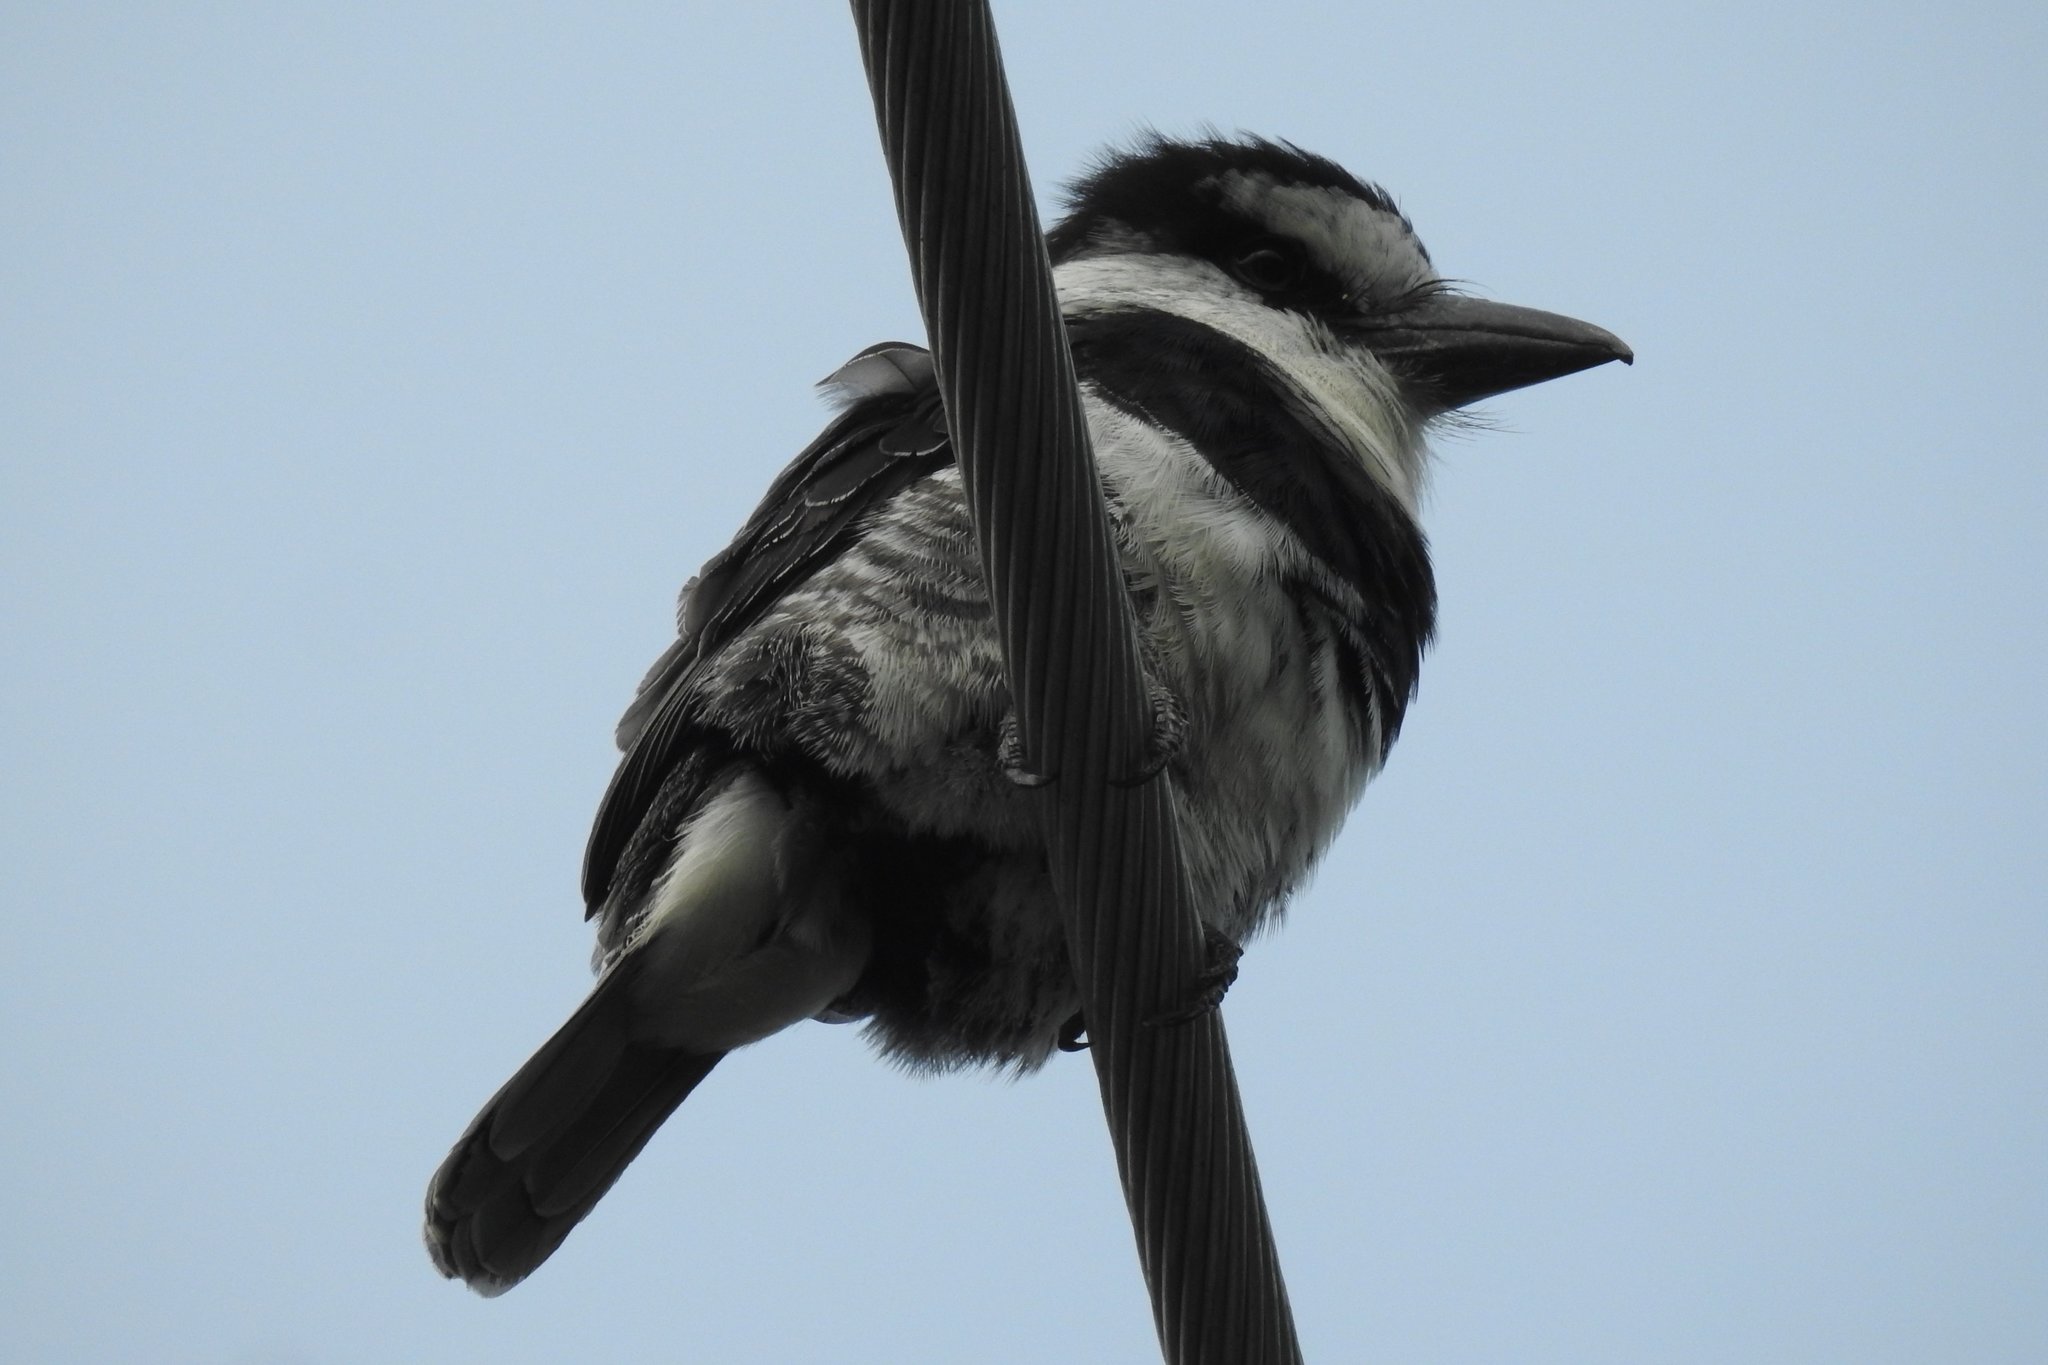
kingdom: Animalia
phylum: Chordata
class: Aves
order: Piciformes
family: Bucconidae
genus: Notharchus
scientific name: Notharchus hyperrhynchus
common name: White-necked puffbird
